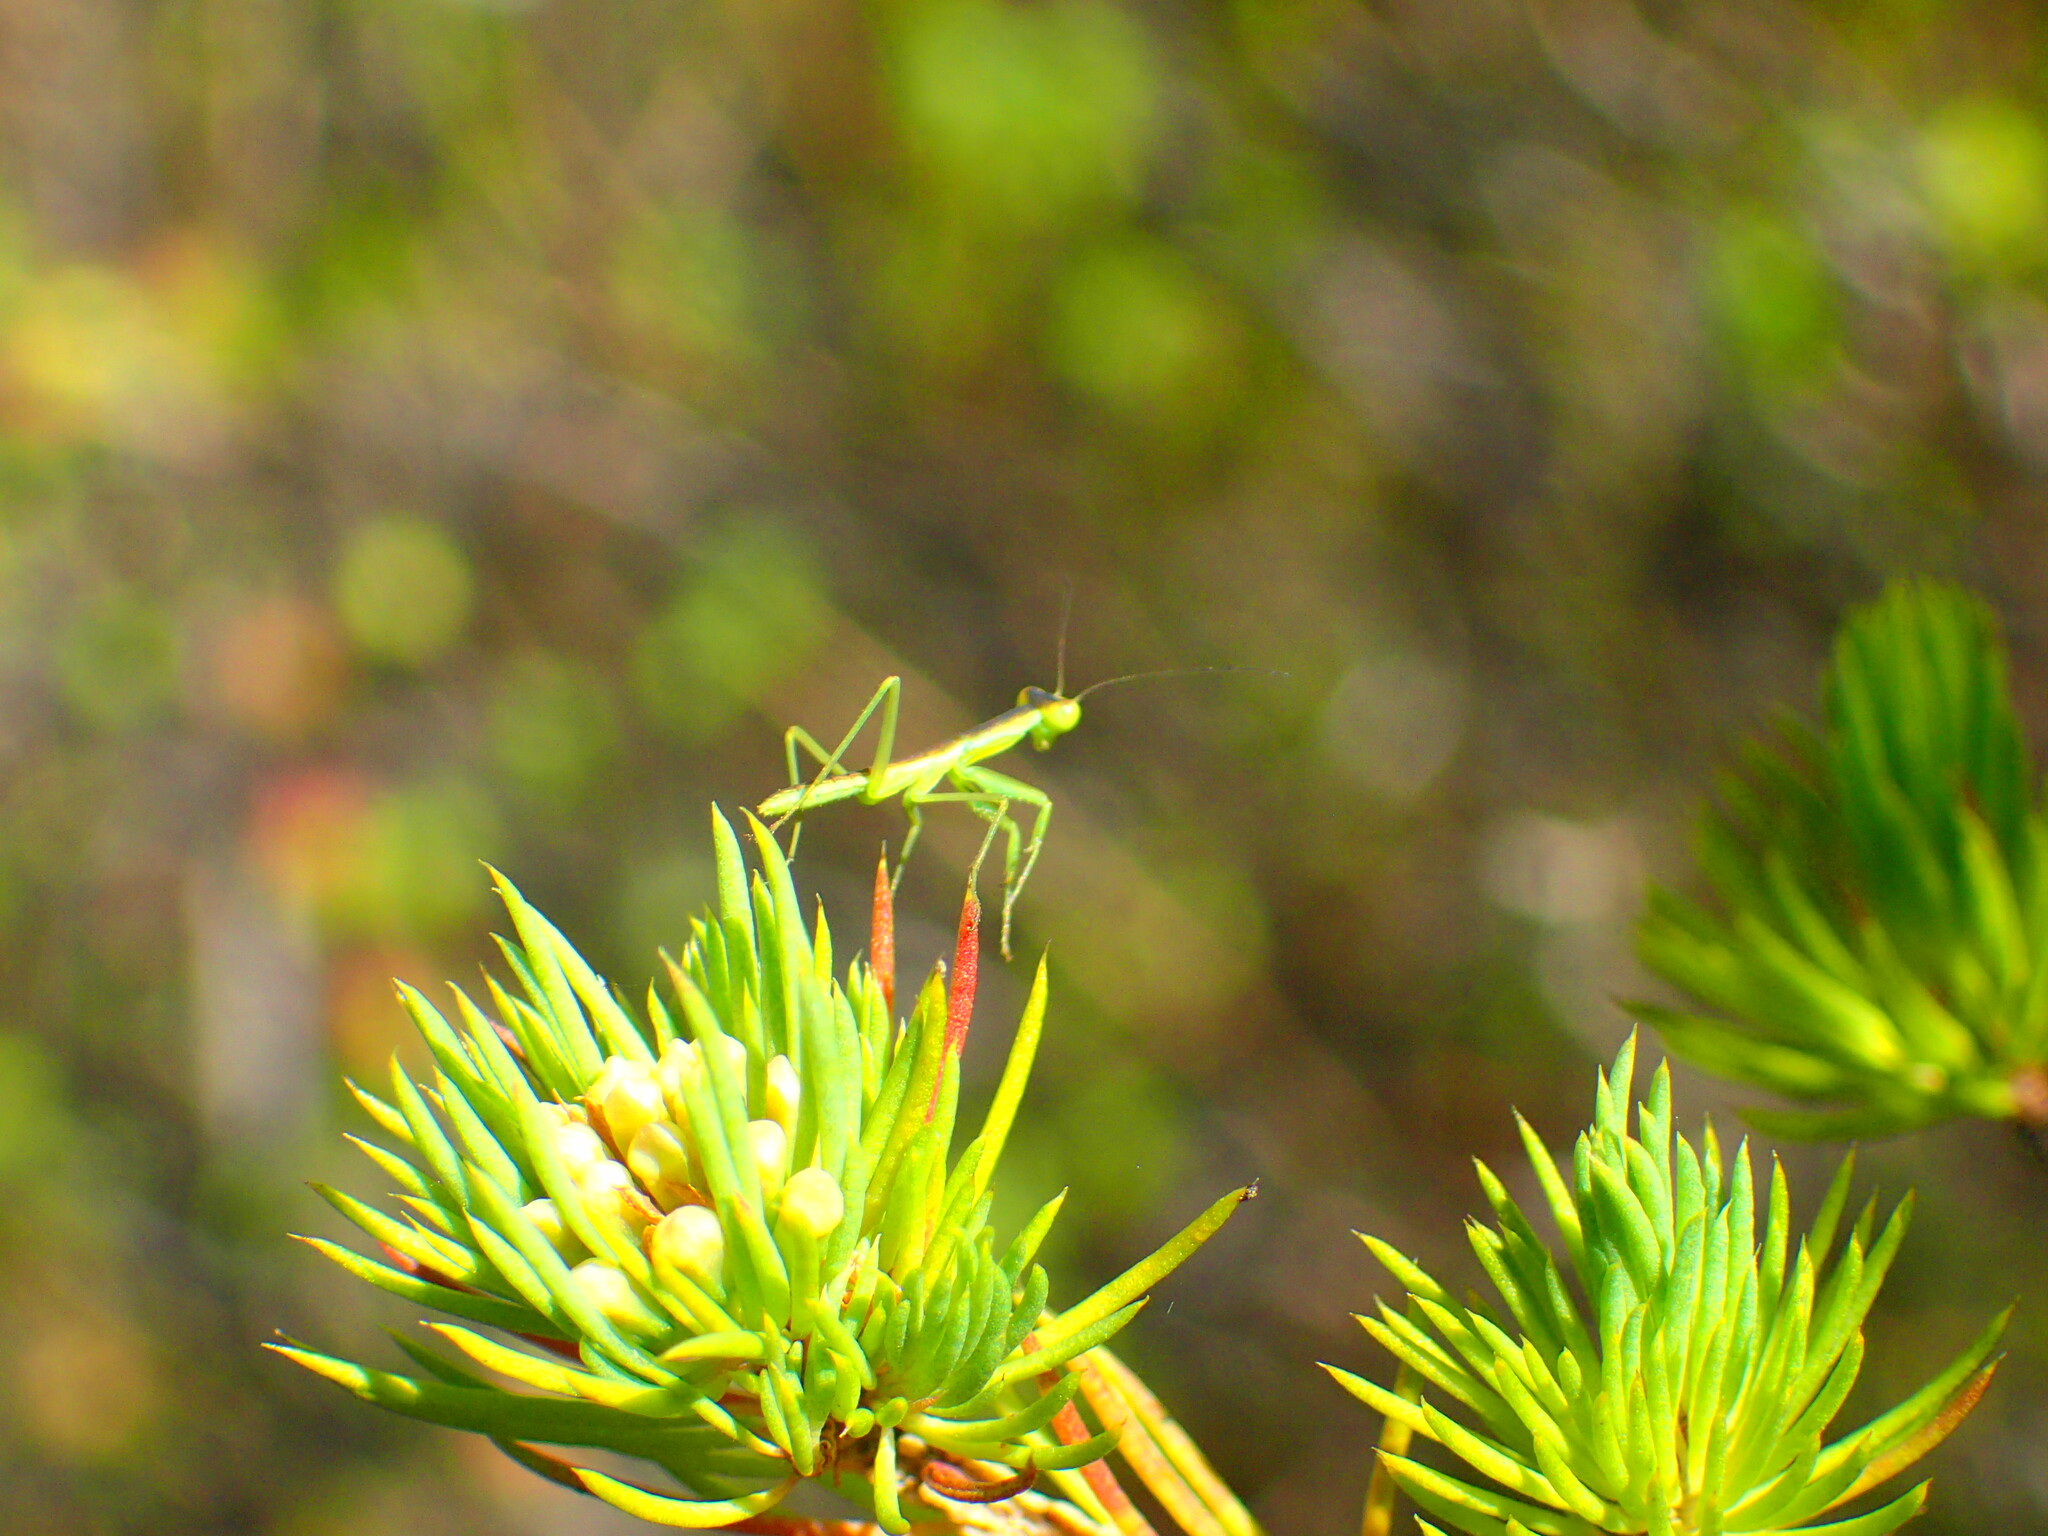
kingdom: Animalia
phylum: Arthropoda
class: Insecta
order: Mantodea
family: Mantidae
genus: Orthodera
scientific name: Orthodera ministralis
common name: Mantis
